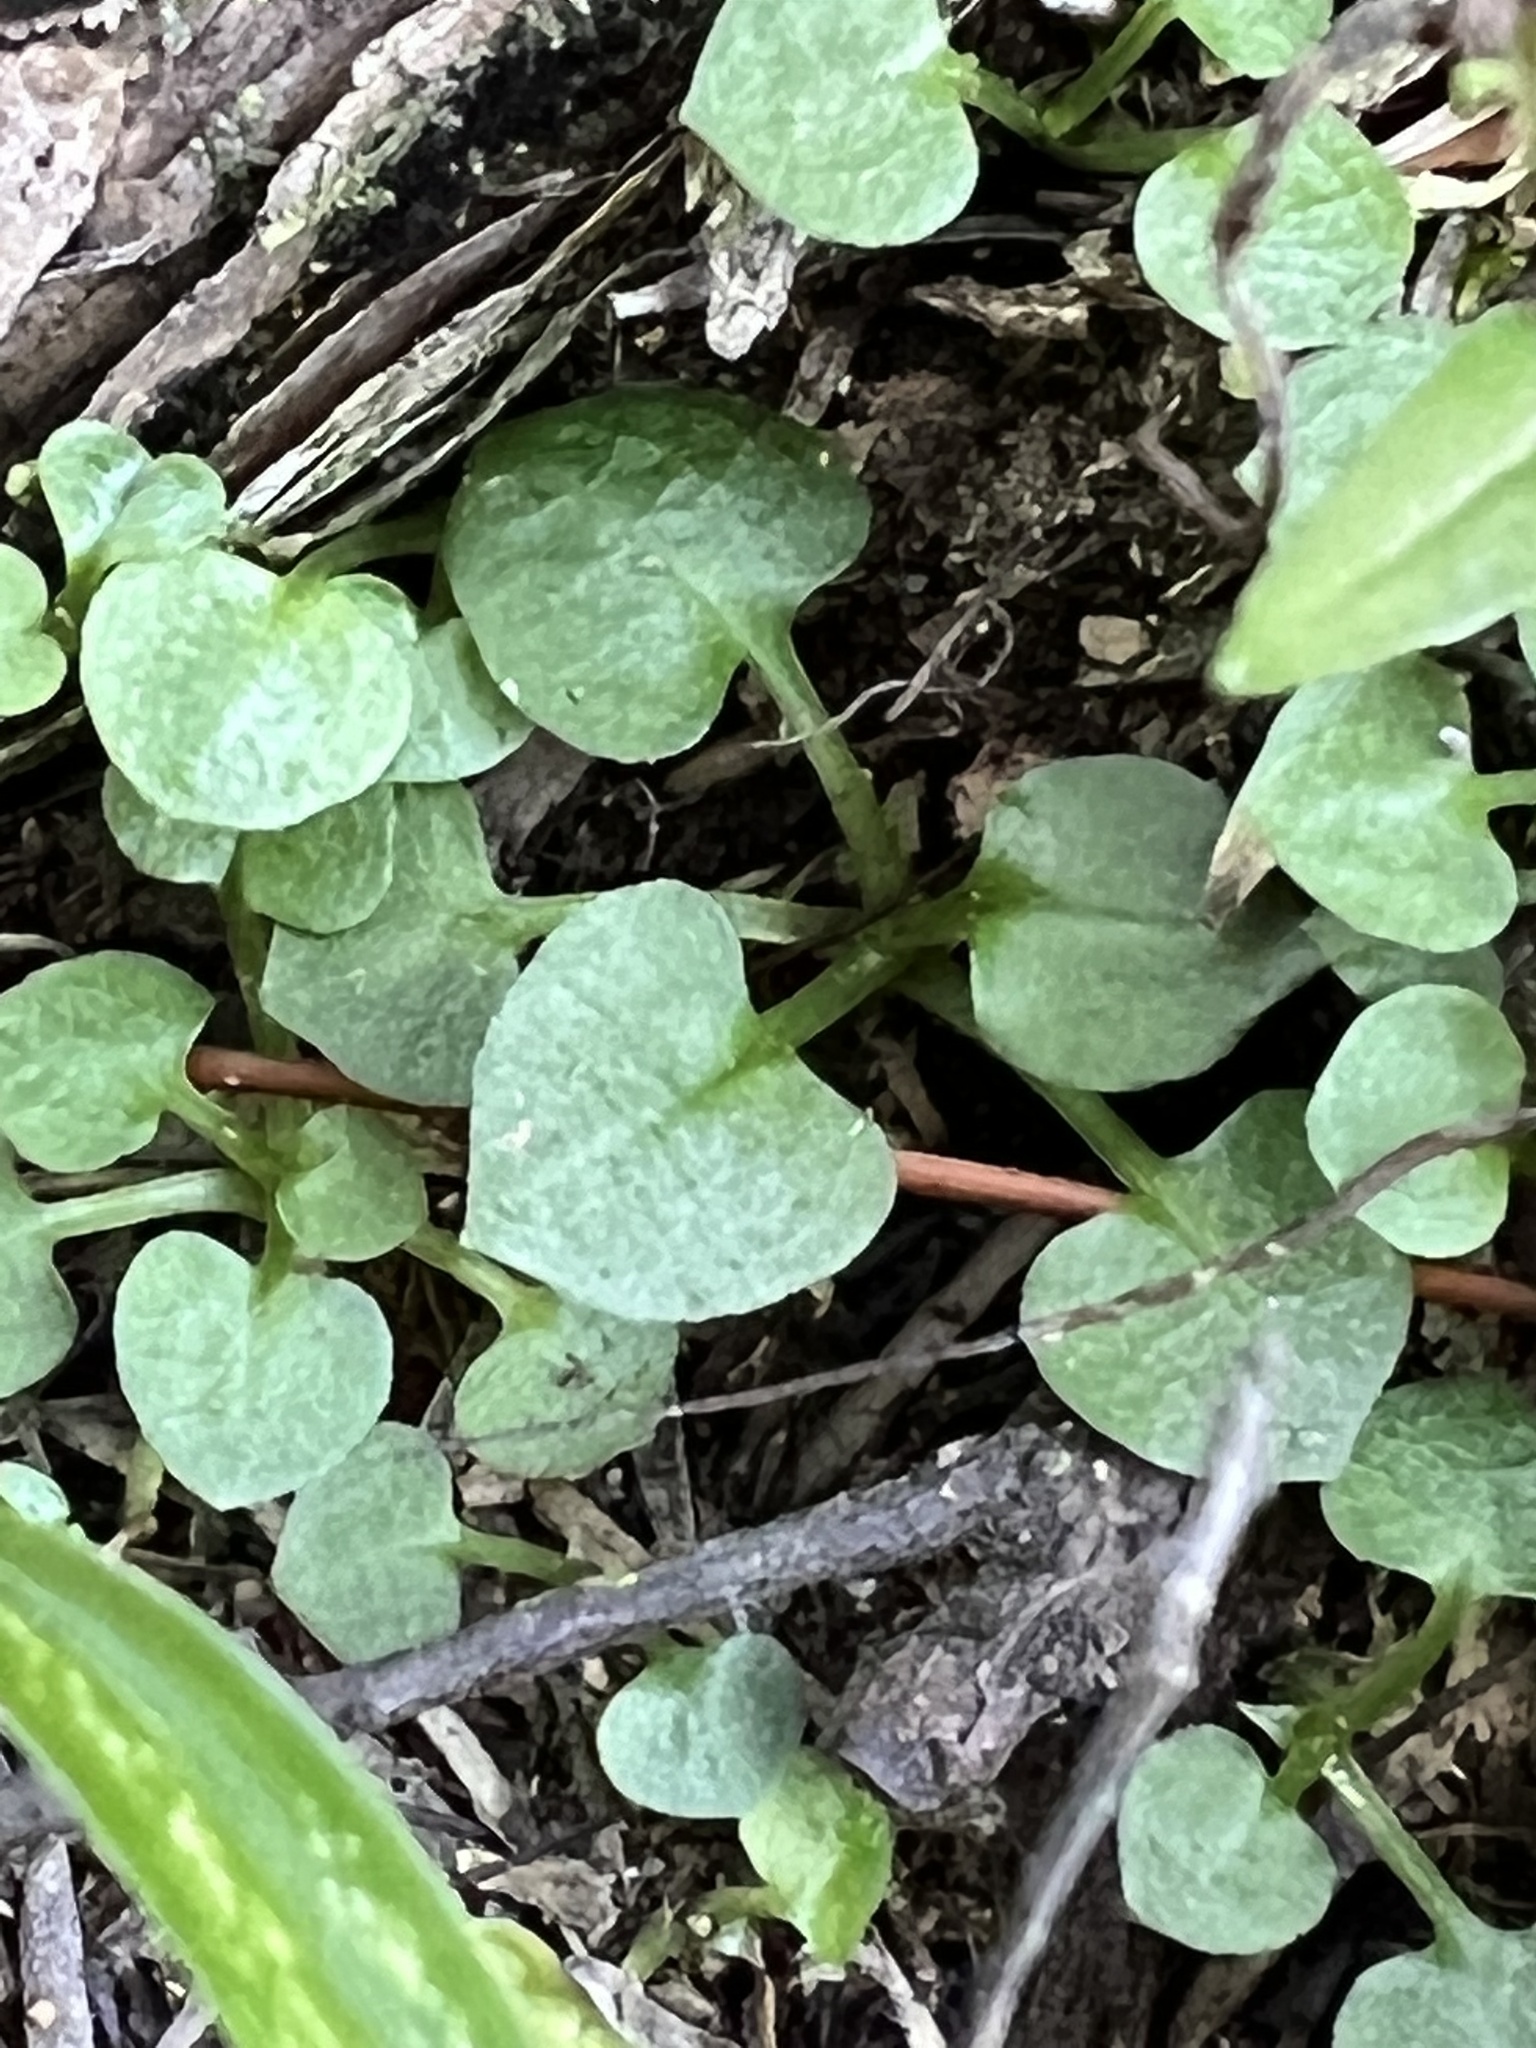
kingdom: Plantae
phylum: Tracheophyta
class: Liliopsida
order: Asparagales
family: Orchidaceae
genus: Pterostylis
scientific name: Pterostylis trullifolia
